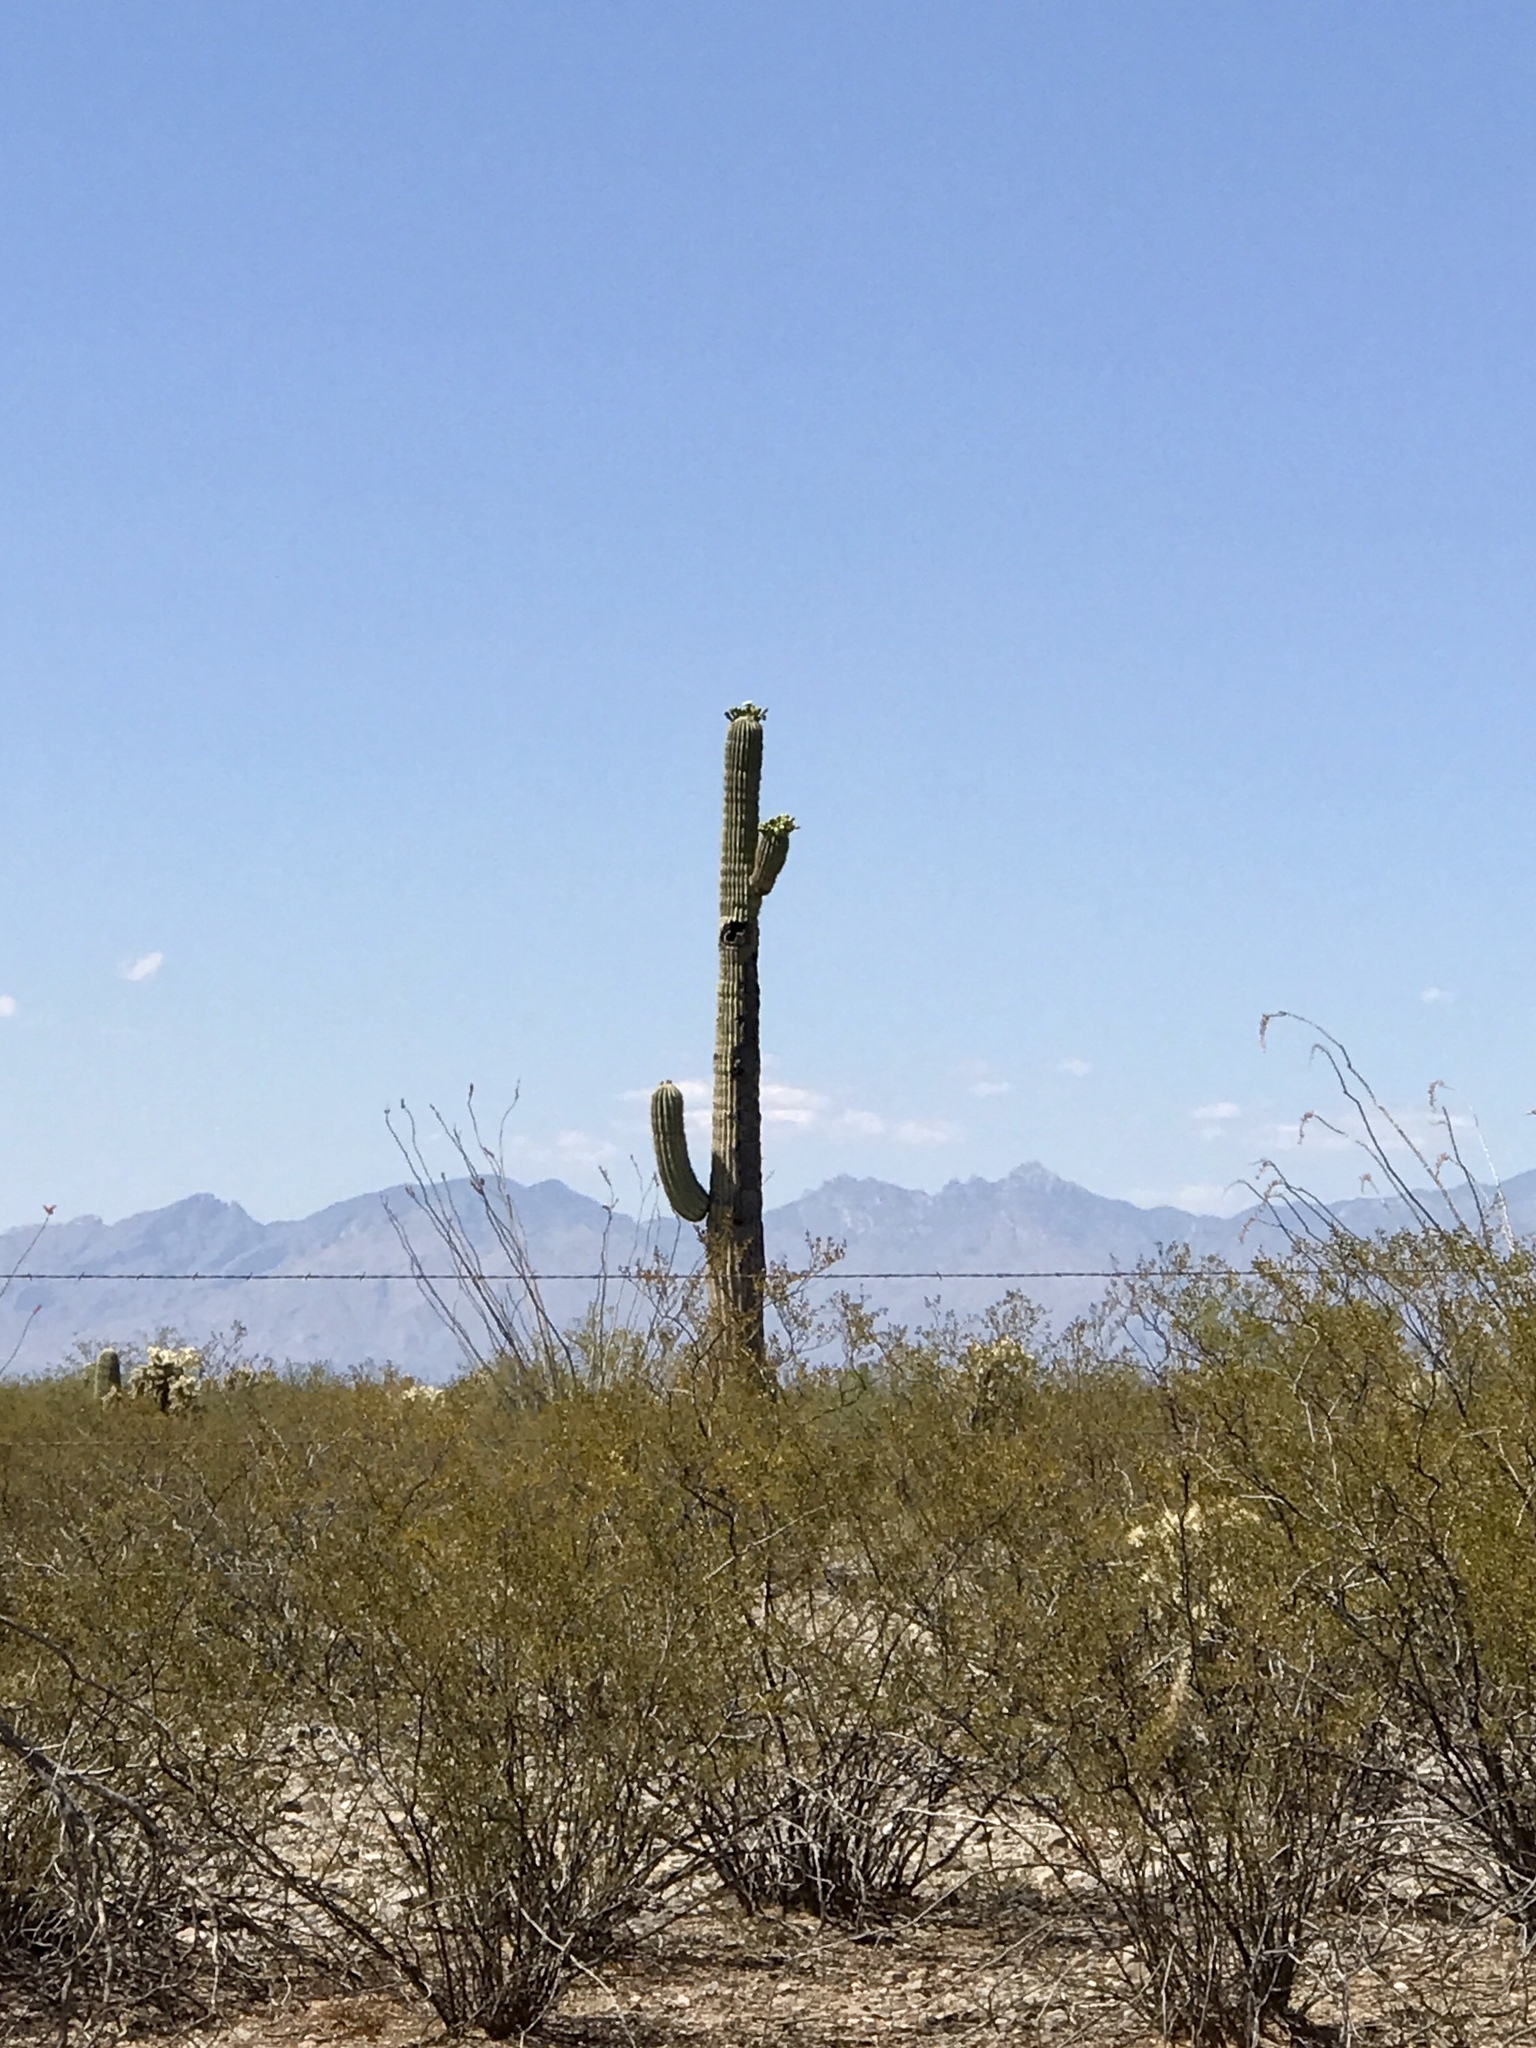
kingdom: Plantae
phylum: Tracheophyta
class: Magnoliopsida
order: Caryophyllales
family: Cactaceae
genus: Carnegiea
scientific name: Carnegiea gigantea
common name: Saguaro
